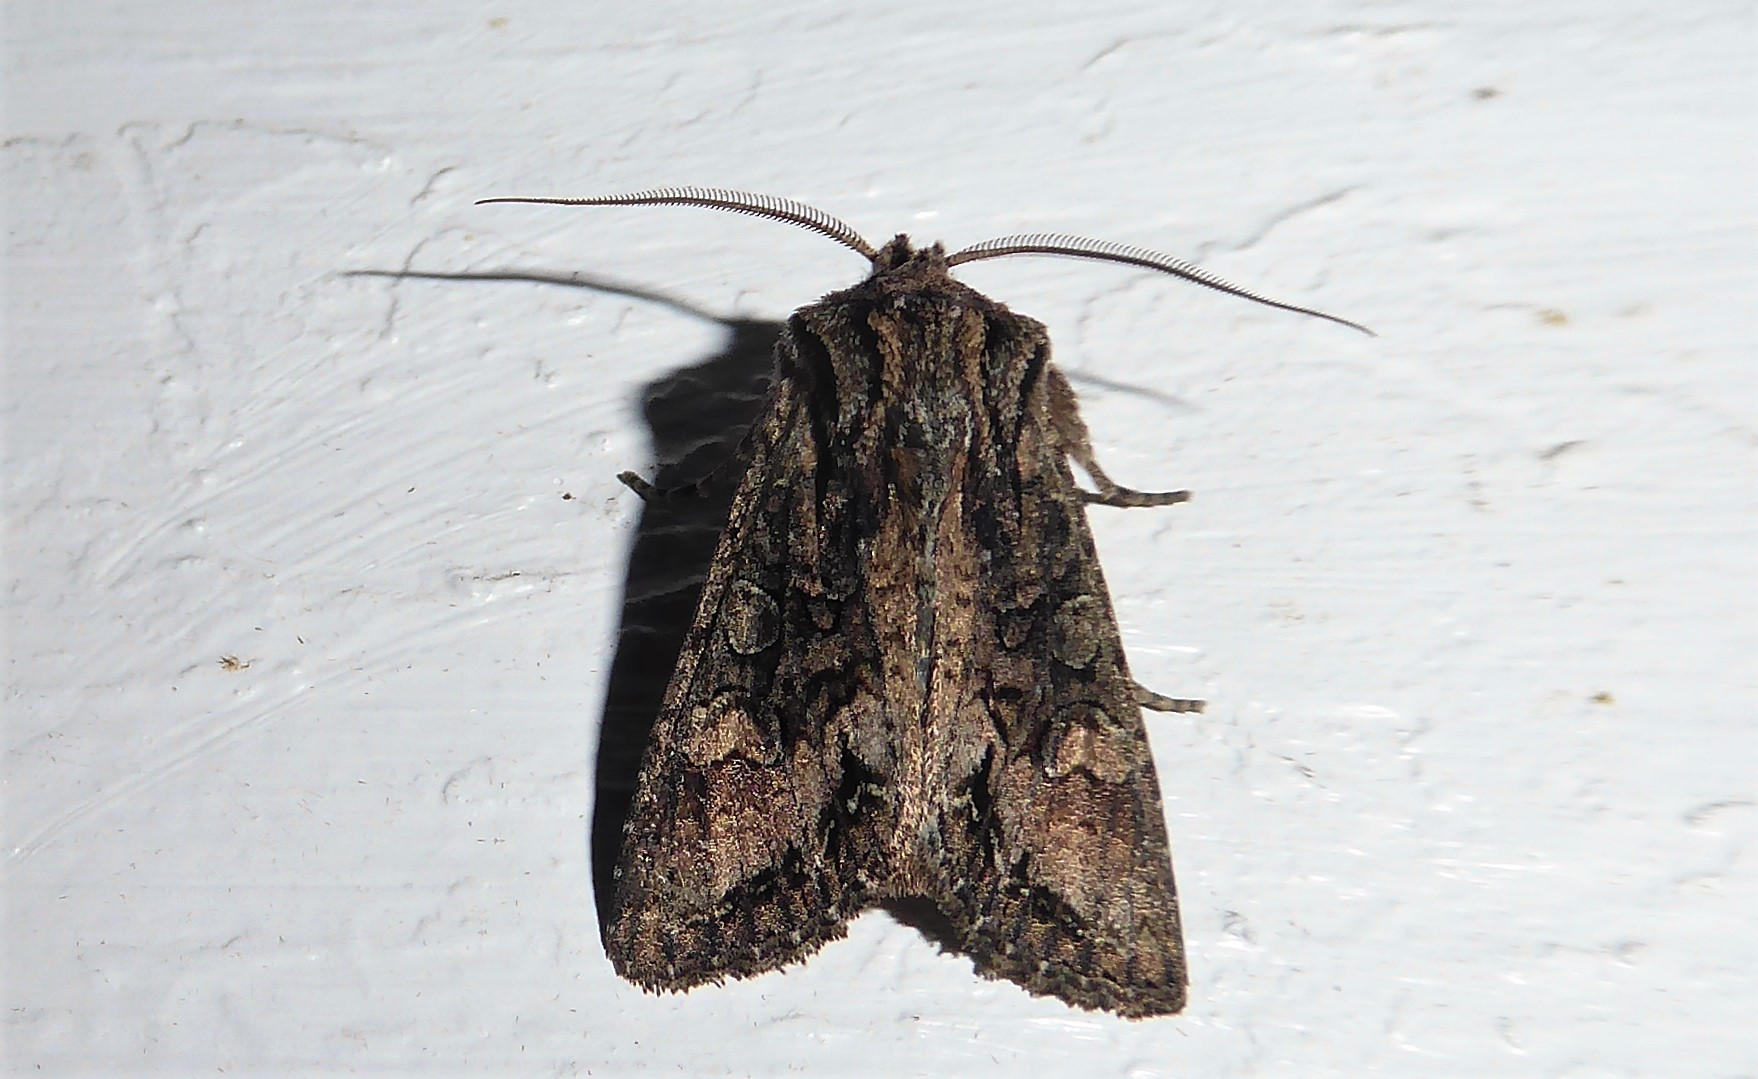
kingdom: Animalia
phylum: Arthropoda
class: Insecta
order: Lepidoptera
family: Noctuidae
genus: Ichneutica
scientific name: Ichneutica mutans
